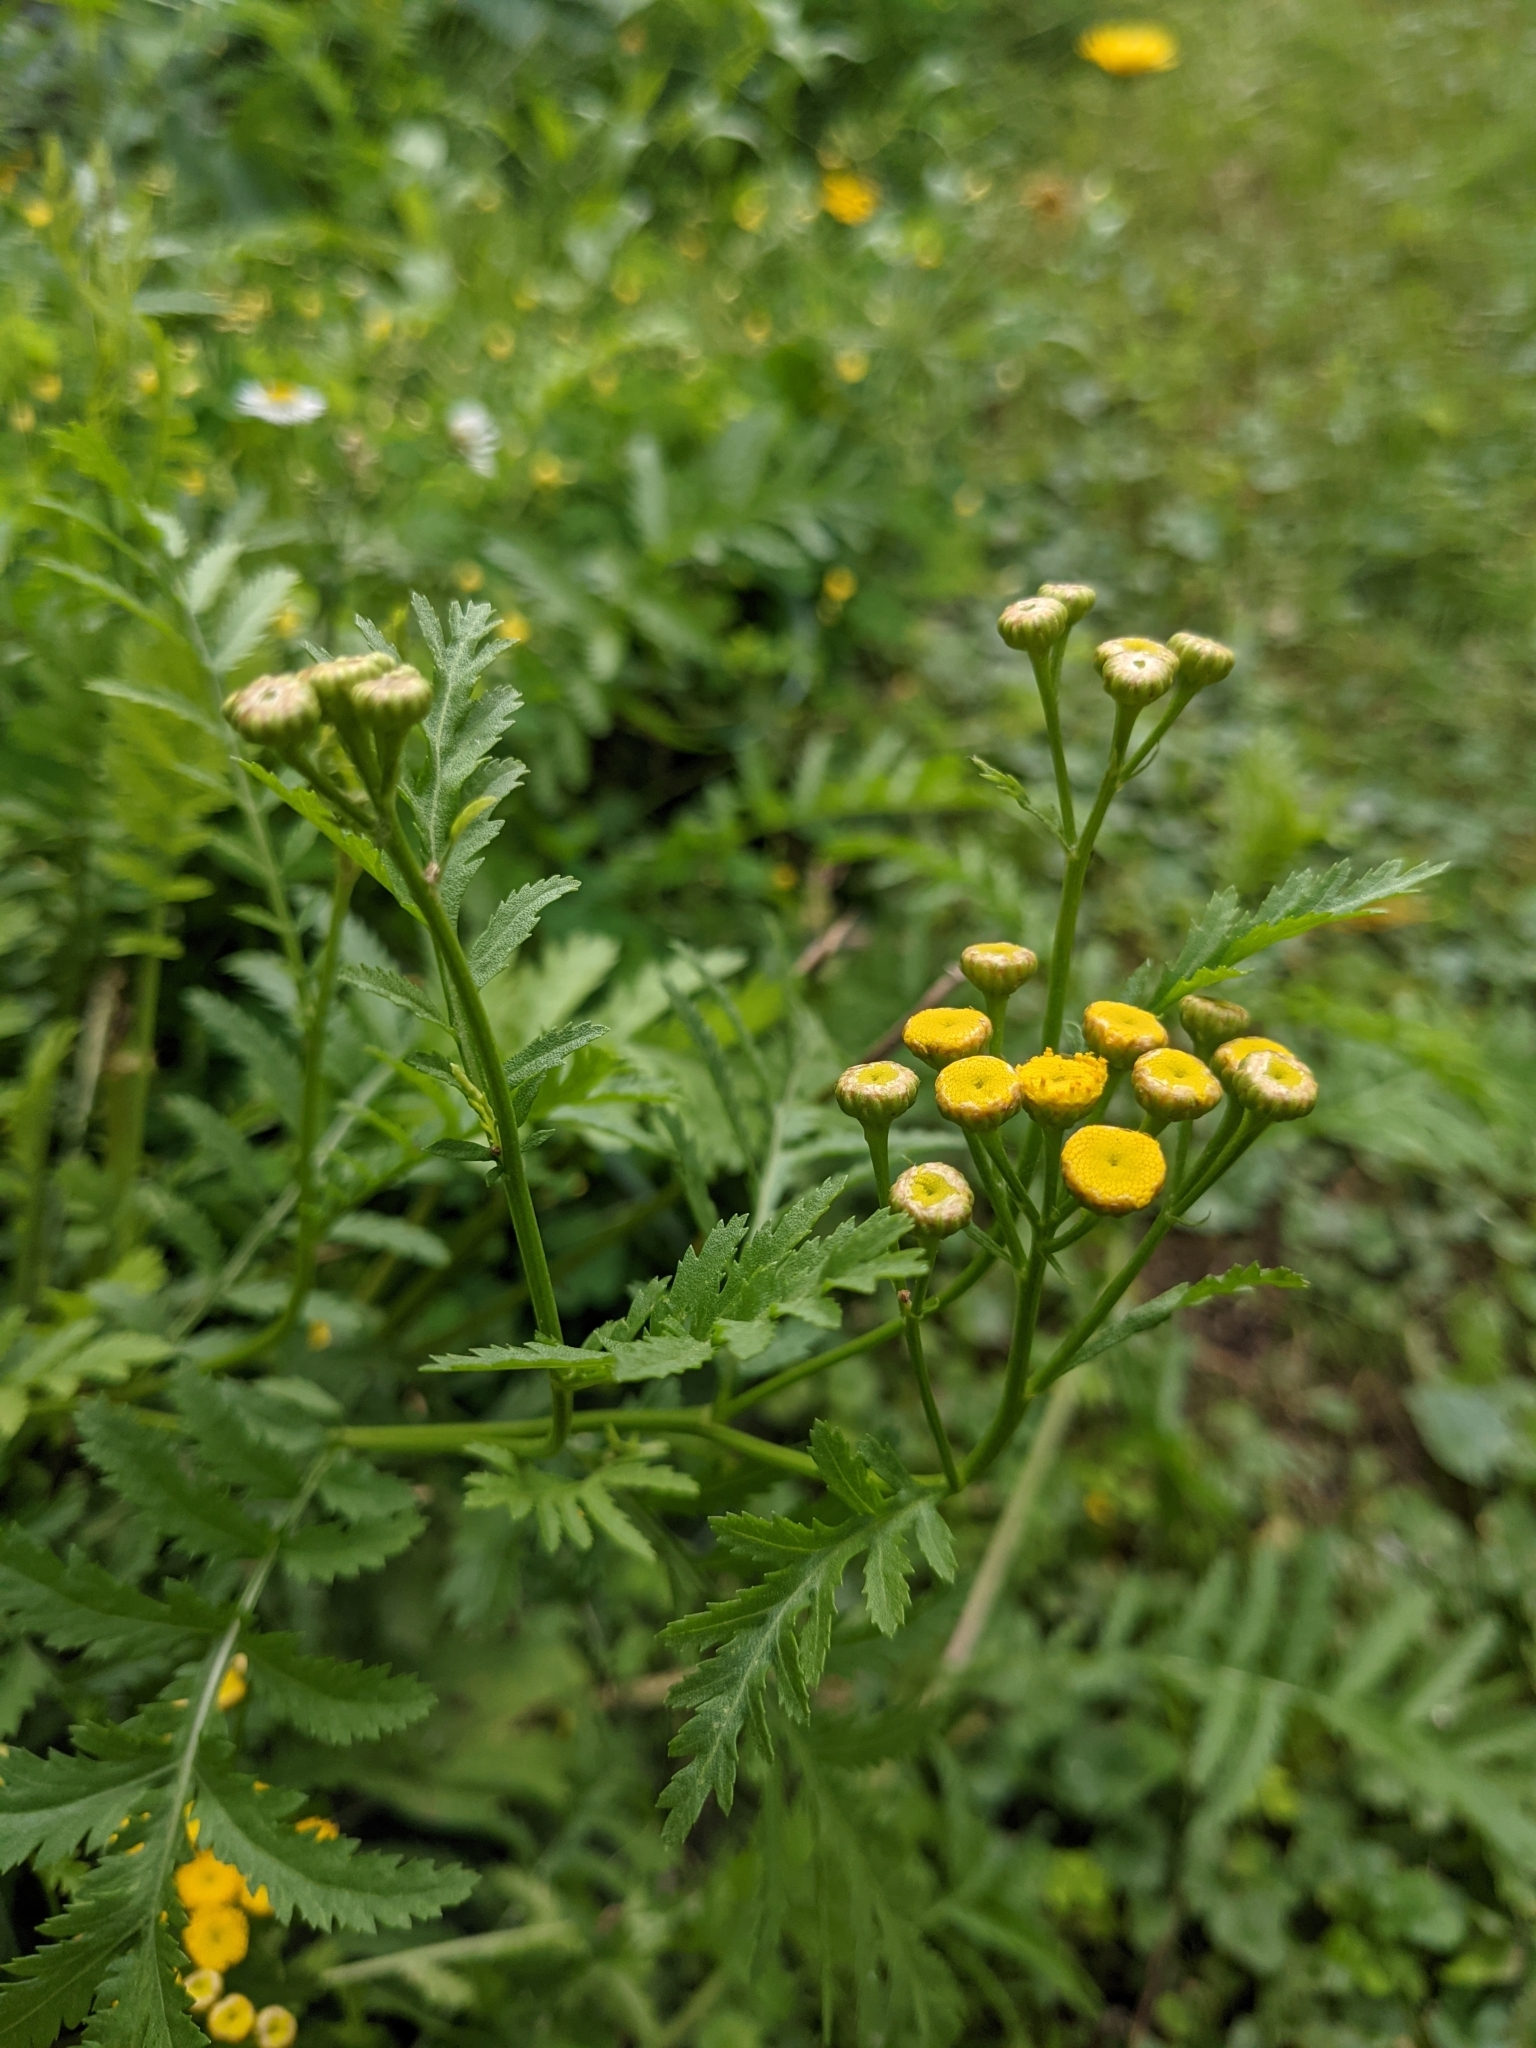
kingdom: Plantae
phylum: Tracheophyta
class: Magnoliopsida
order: Asterales
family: Asteraceae
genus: Tanacetum
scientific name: Tanacetum vulgare
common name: Common tansy
